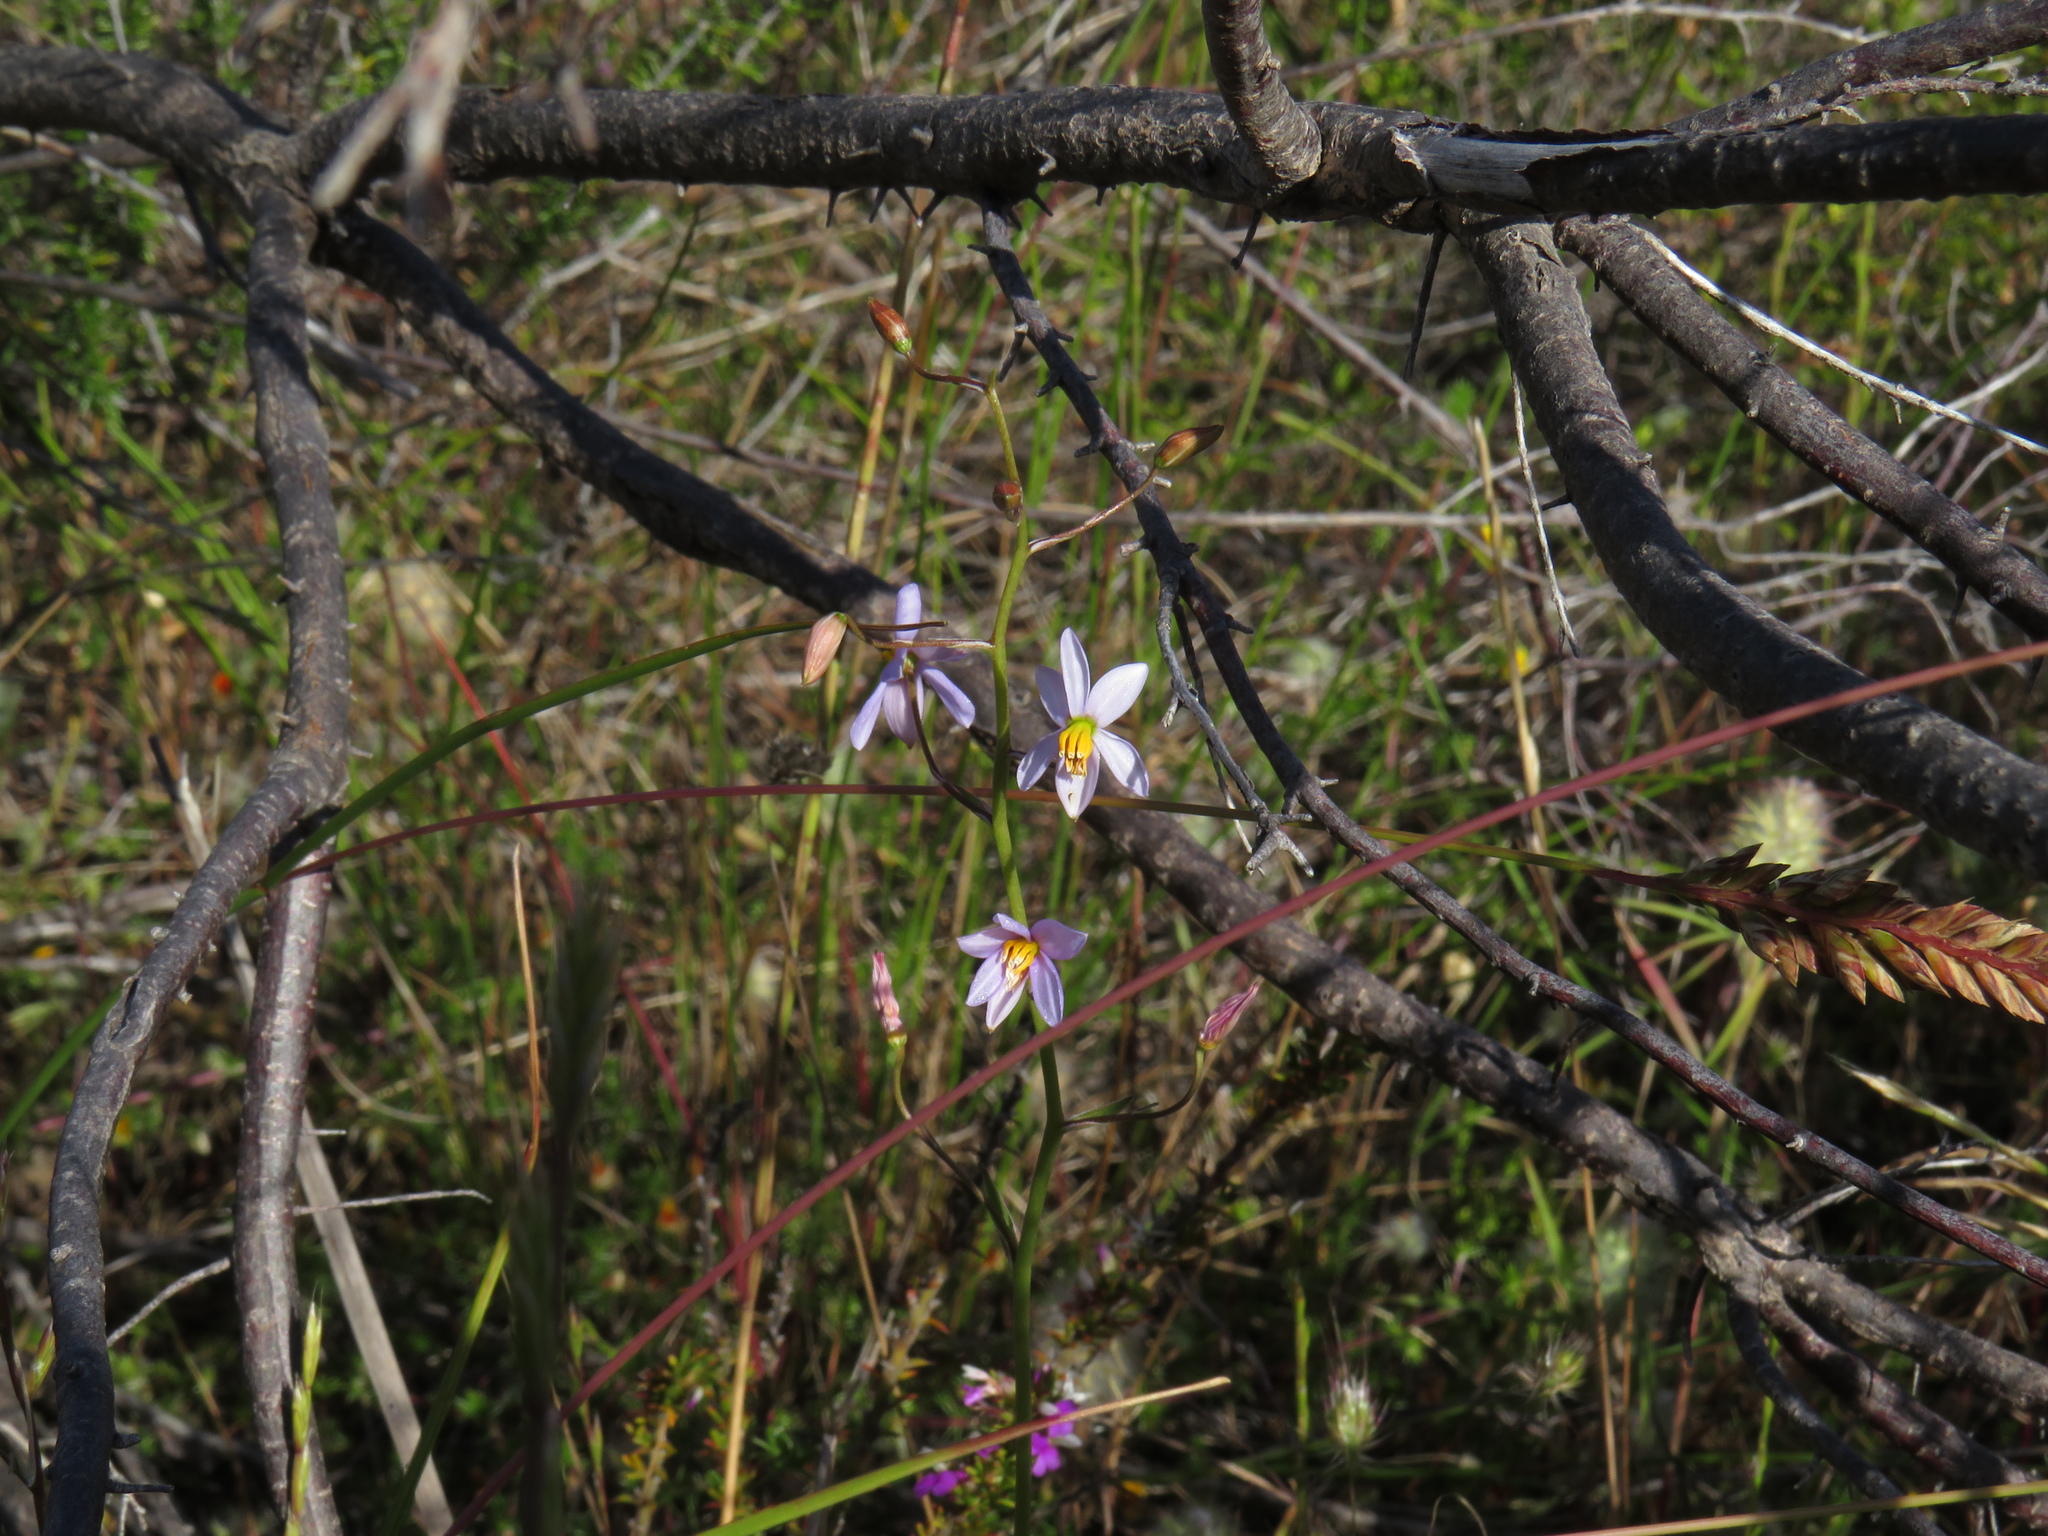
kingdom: Plantae
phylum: Tracheophyta
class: Liliopsida
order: Asparagales
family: Tecophilaeaceae
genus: Cyanella
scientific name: Cyanella hyacinthoides
